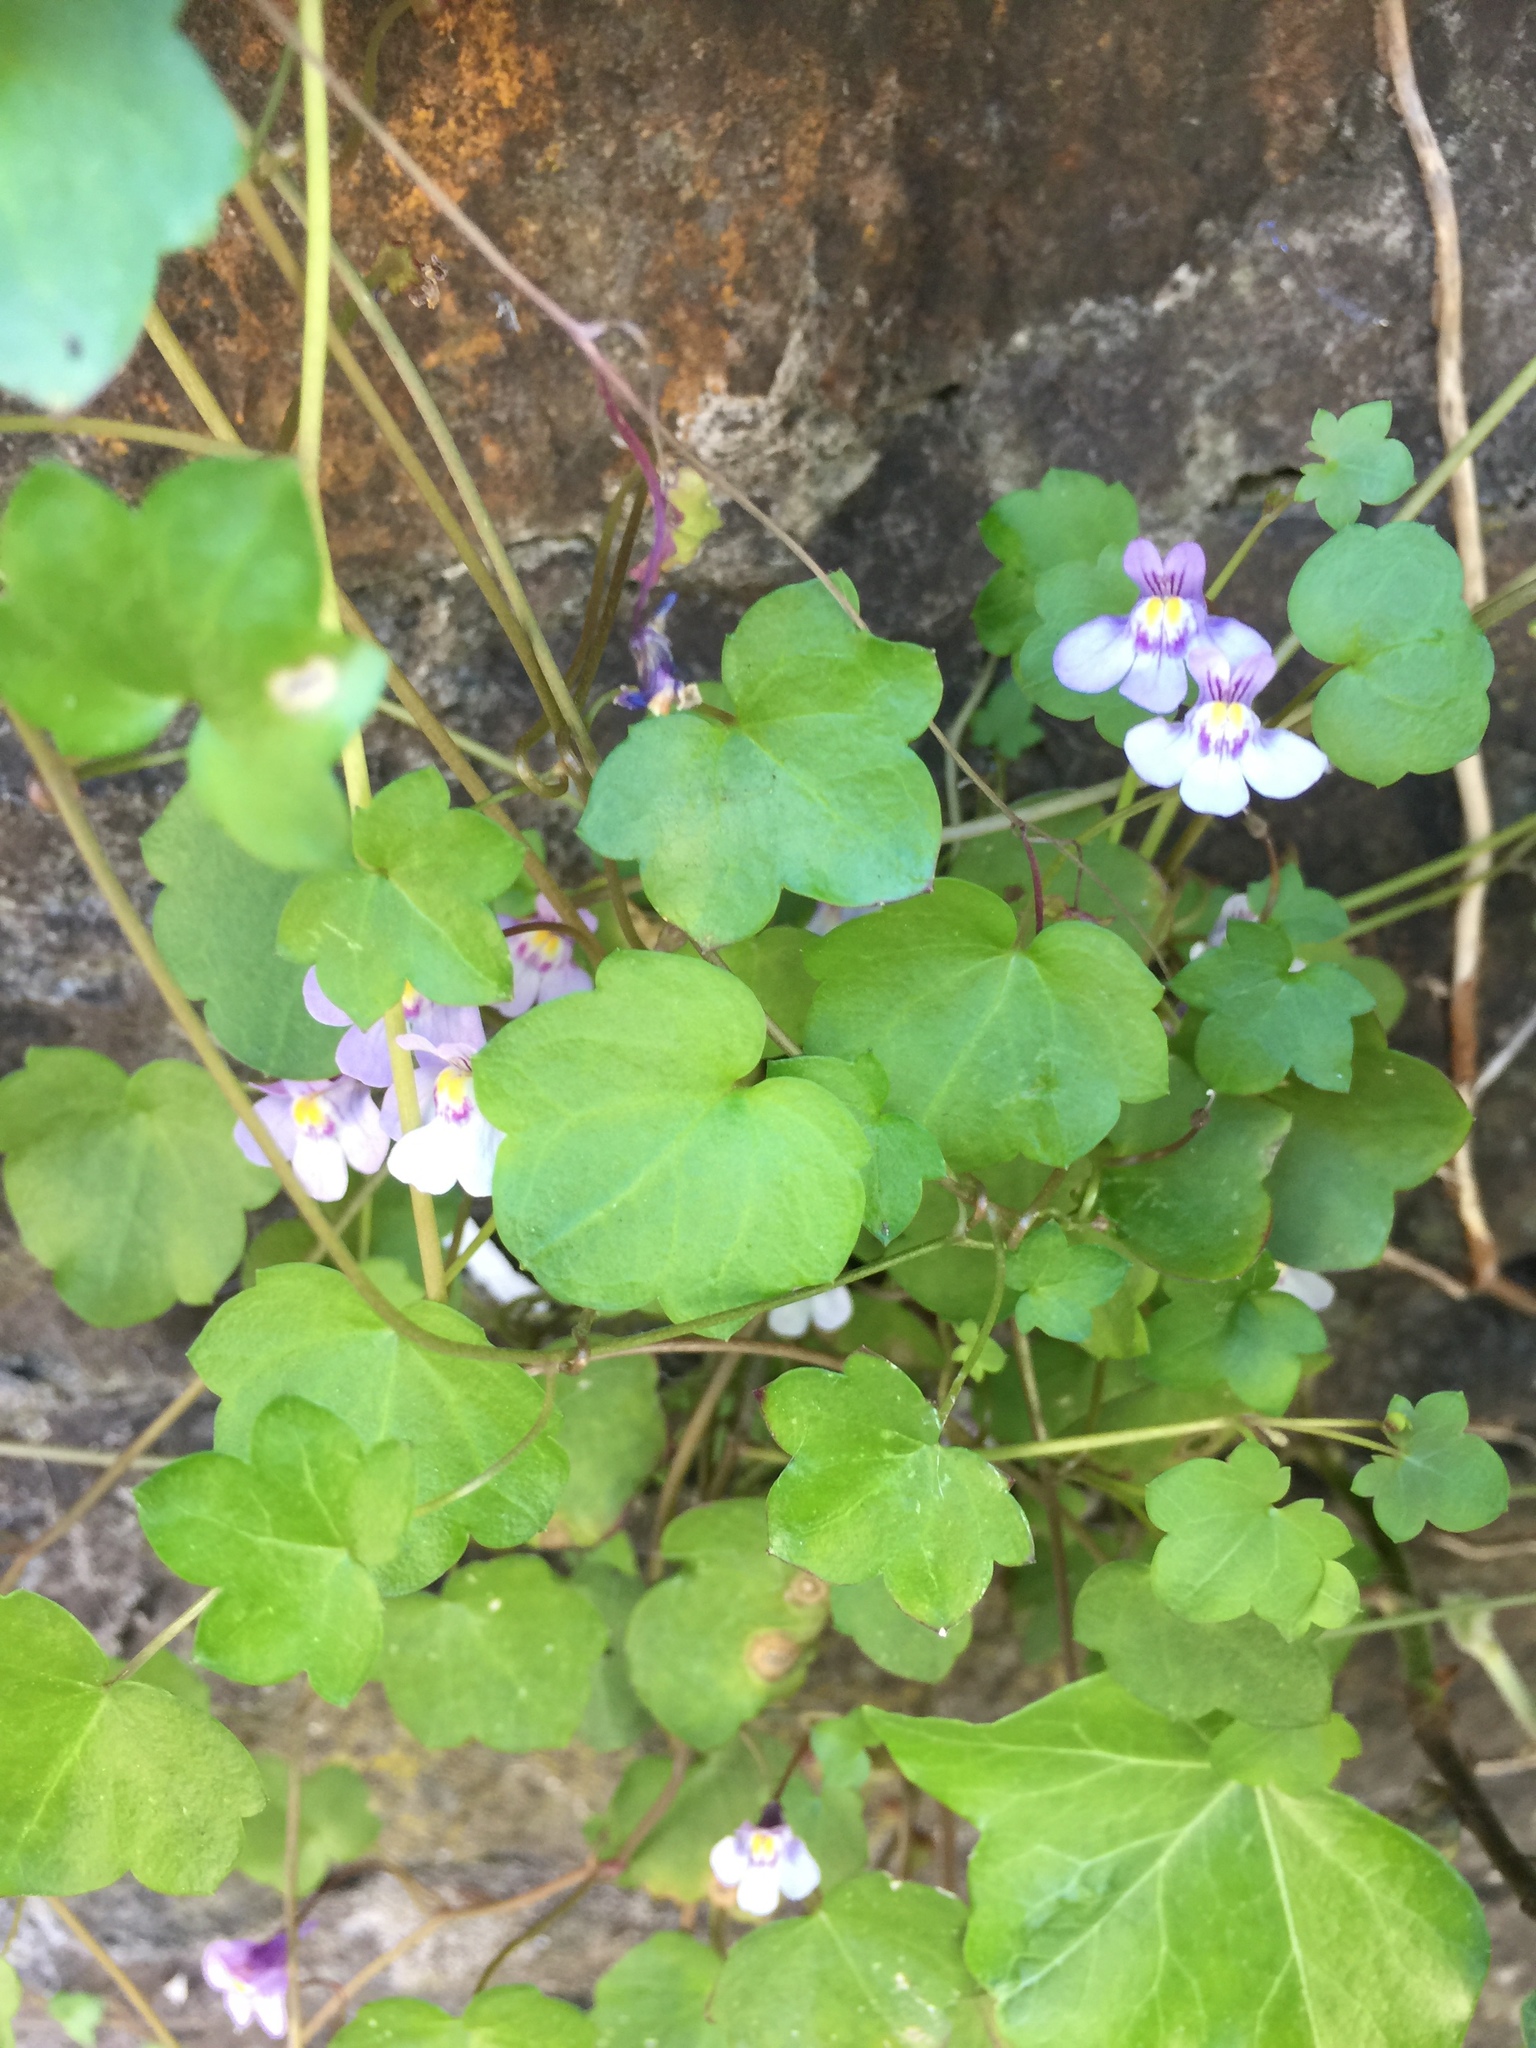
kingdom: Plantae
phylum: Tracheophyta
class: Magnoliopsida
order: Lamiales
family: Plantaginaceae
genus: Cymbalaria
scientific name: Cymbalaria muralis
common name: Ivy-leaved toadflax
